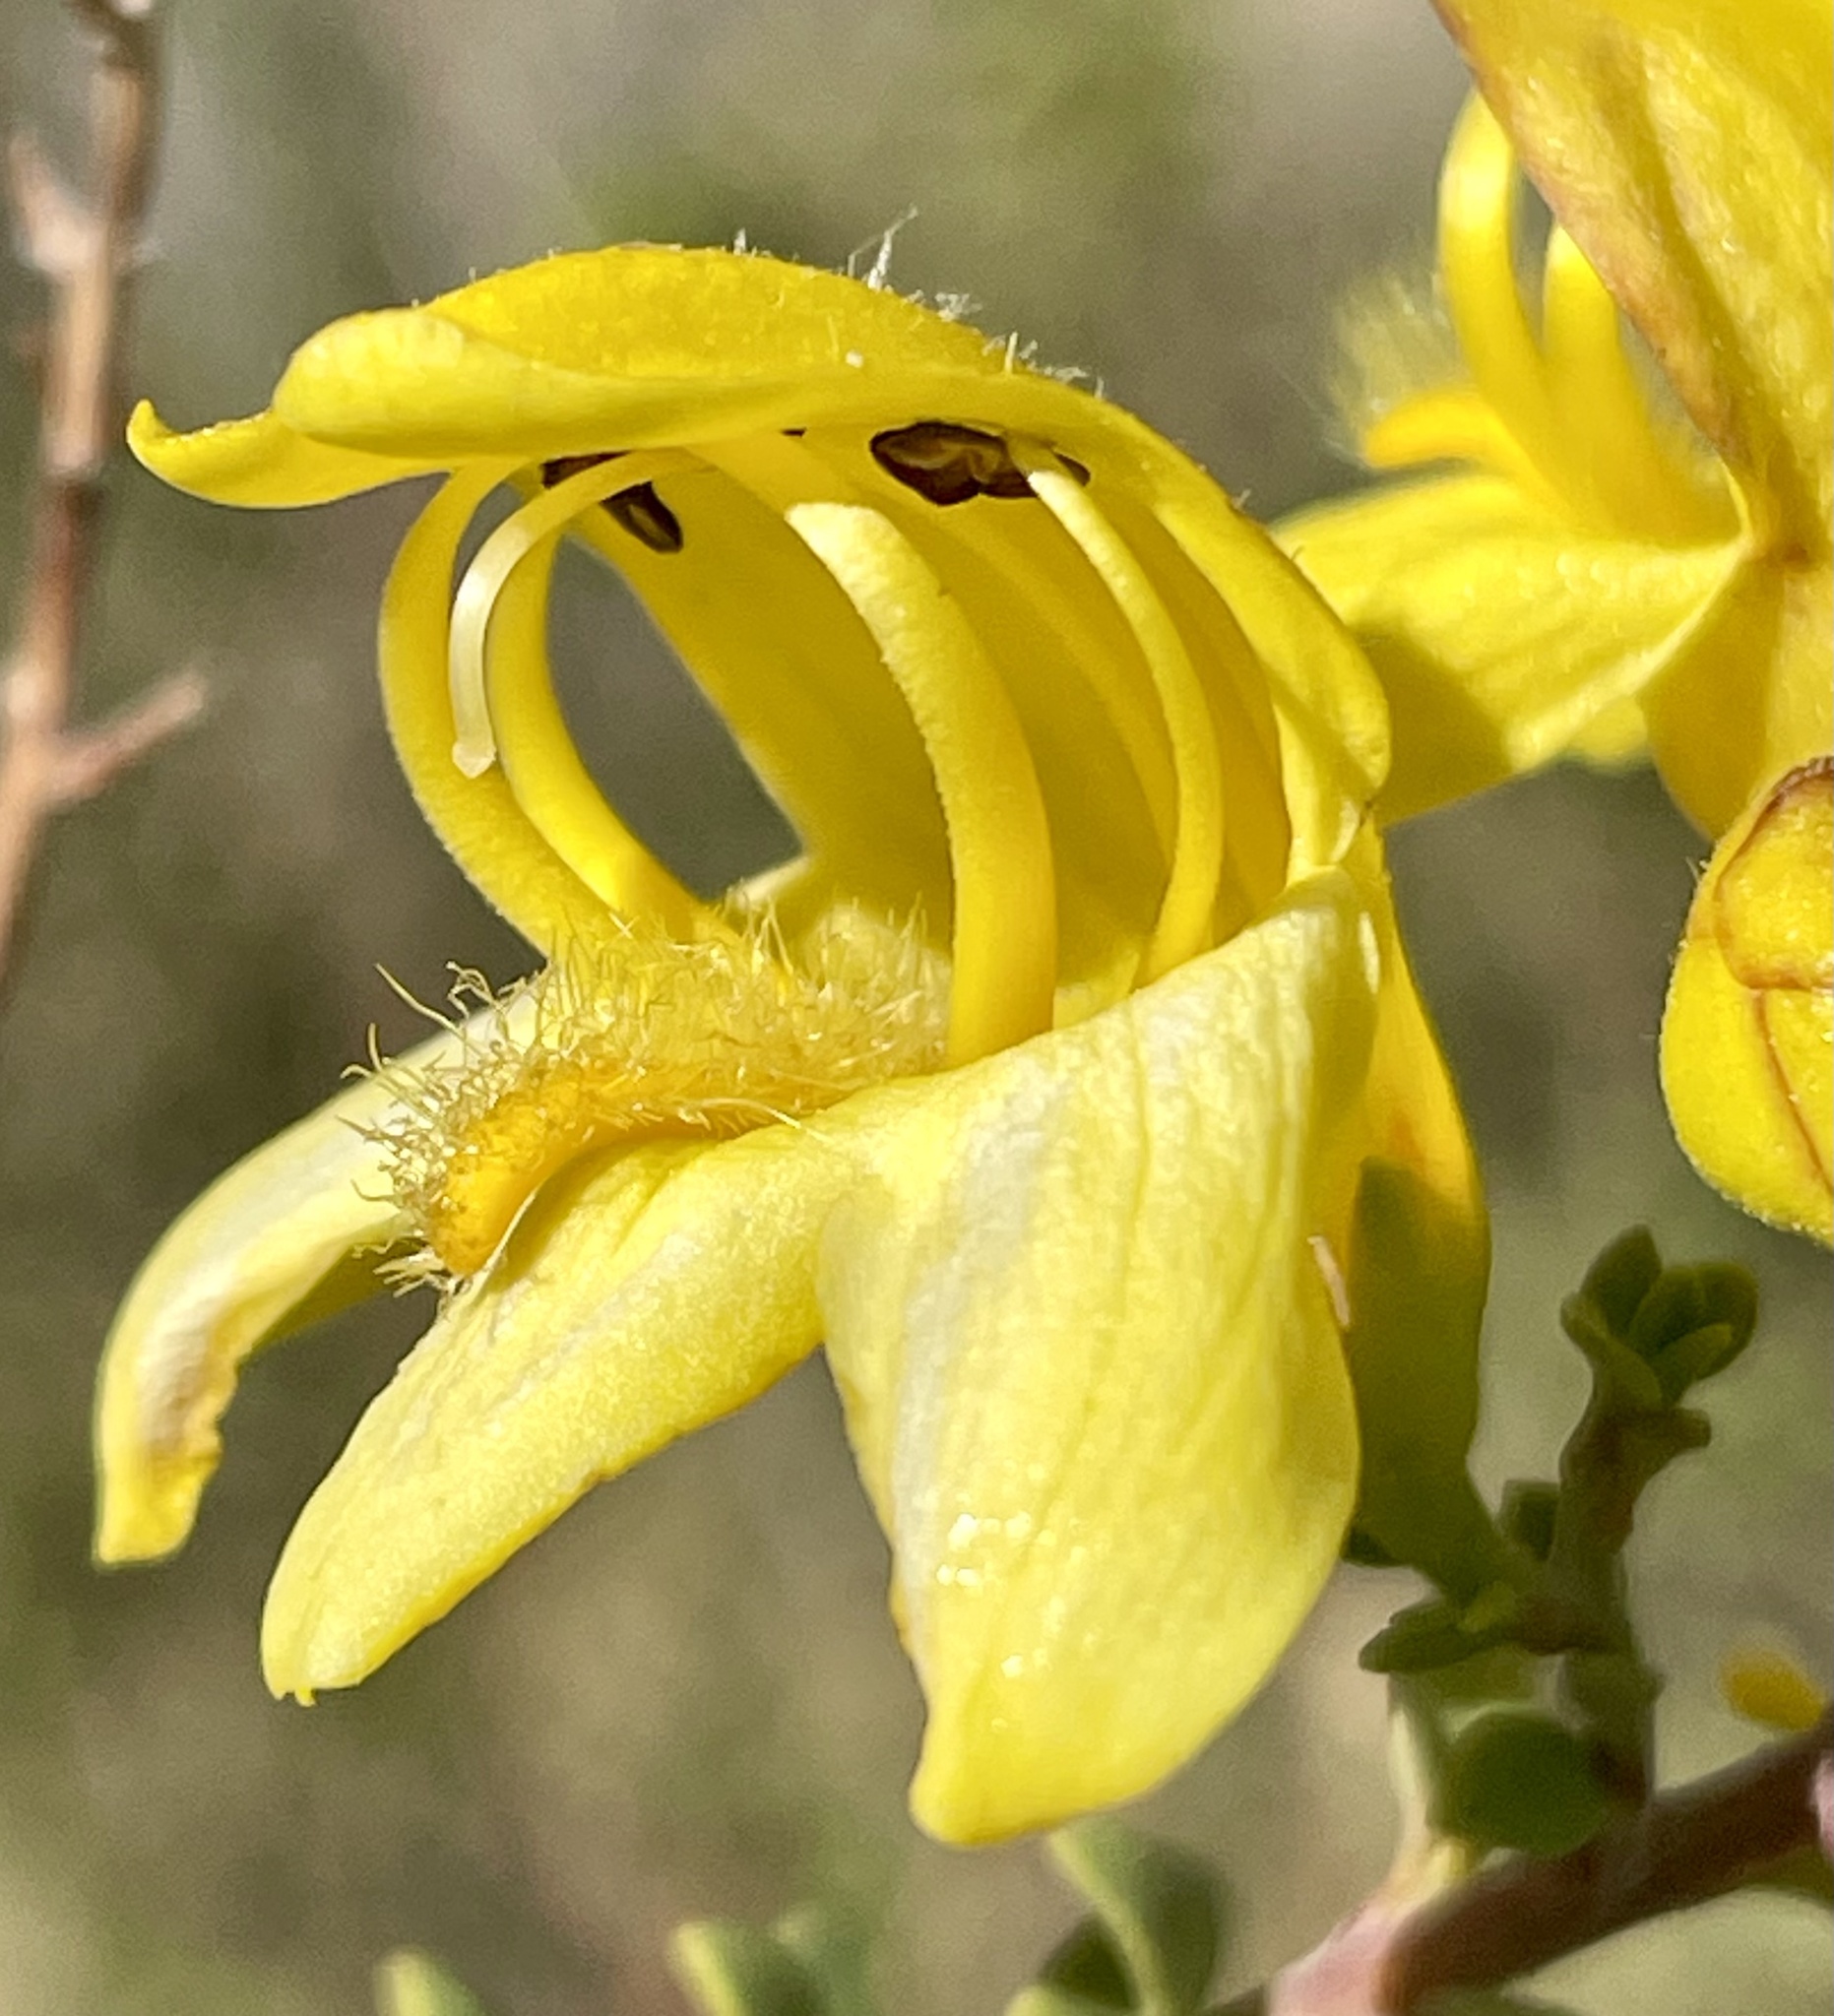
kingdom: Plantae
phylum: Tracheophyta
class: Magnoliopsida
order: Lamiales
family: Plantaginaceae
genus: Keckiella
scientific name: Keckiella antirrhinoides
